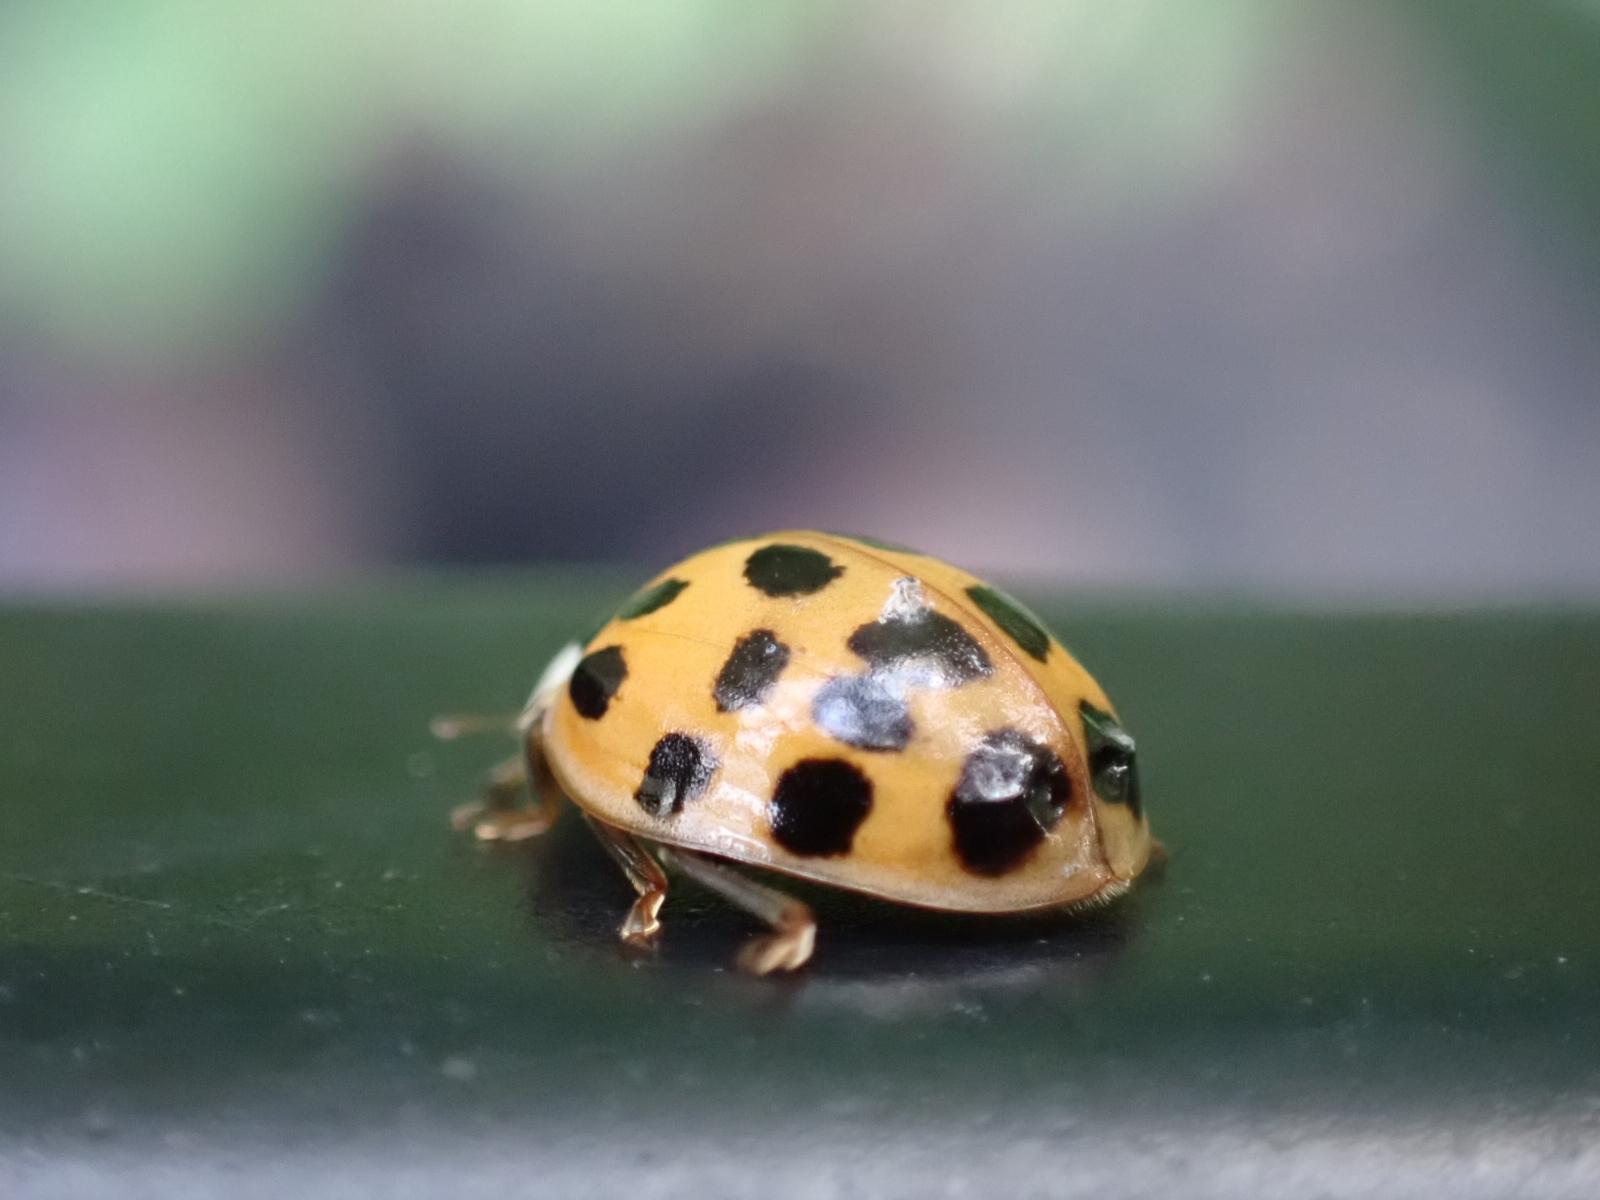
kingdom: Animalia
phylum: Arthropoda
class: Insecta
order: Coleoptera
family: Coccinellidae
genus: Harmonia
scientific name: Harmonia axyridis
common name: Harlequin ladybird
